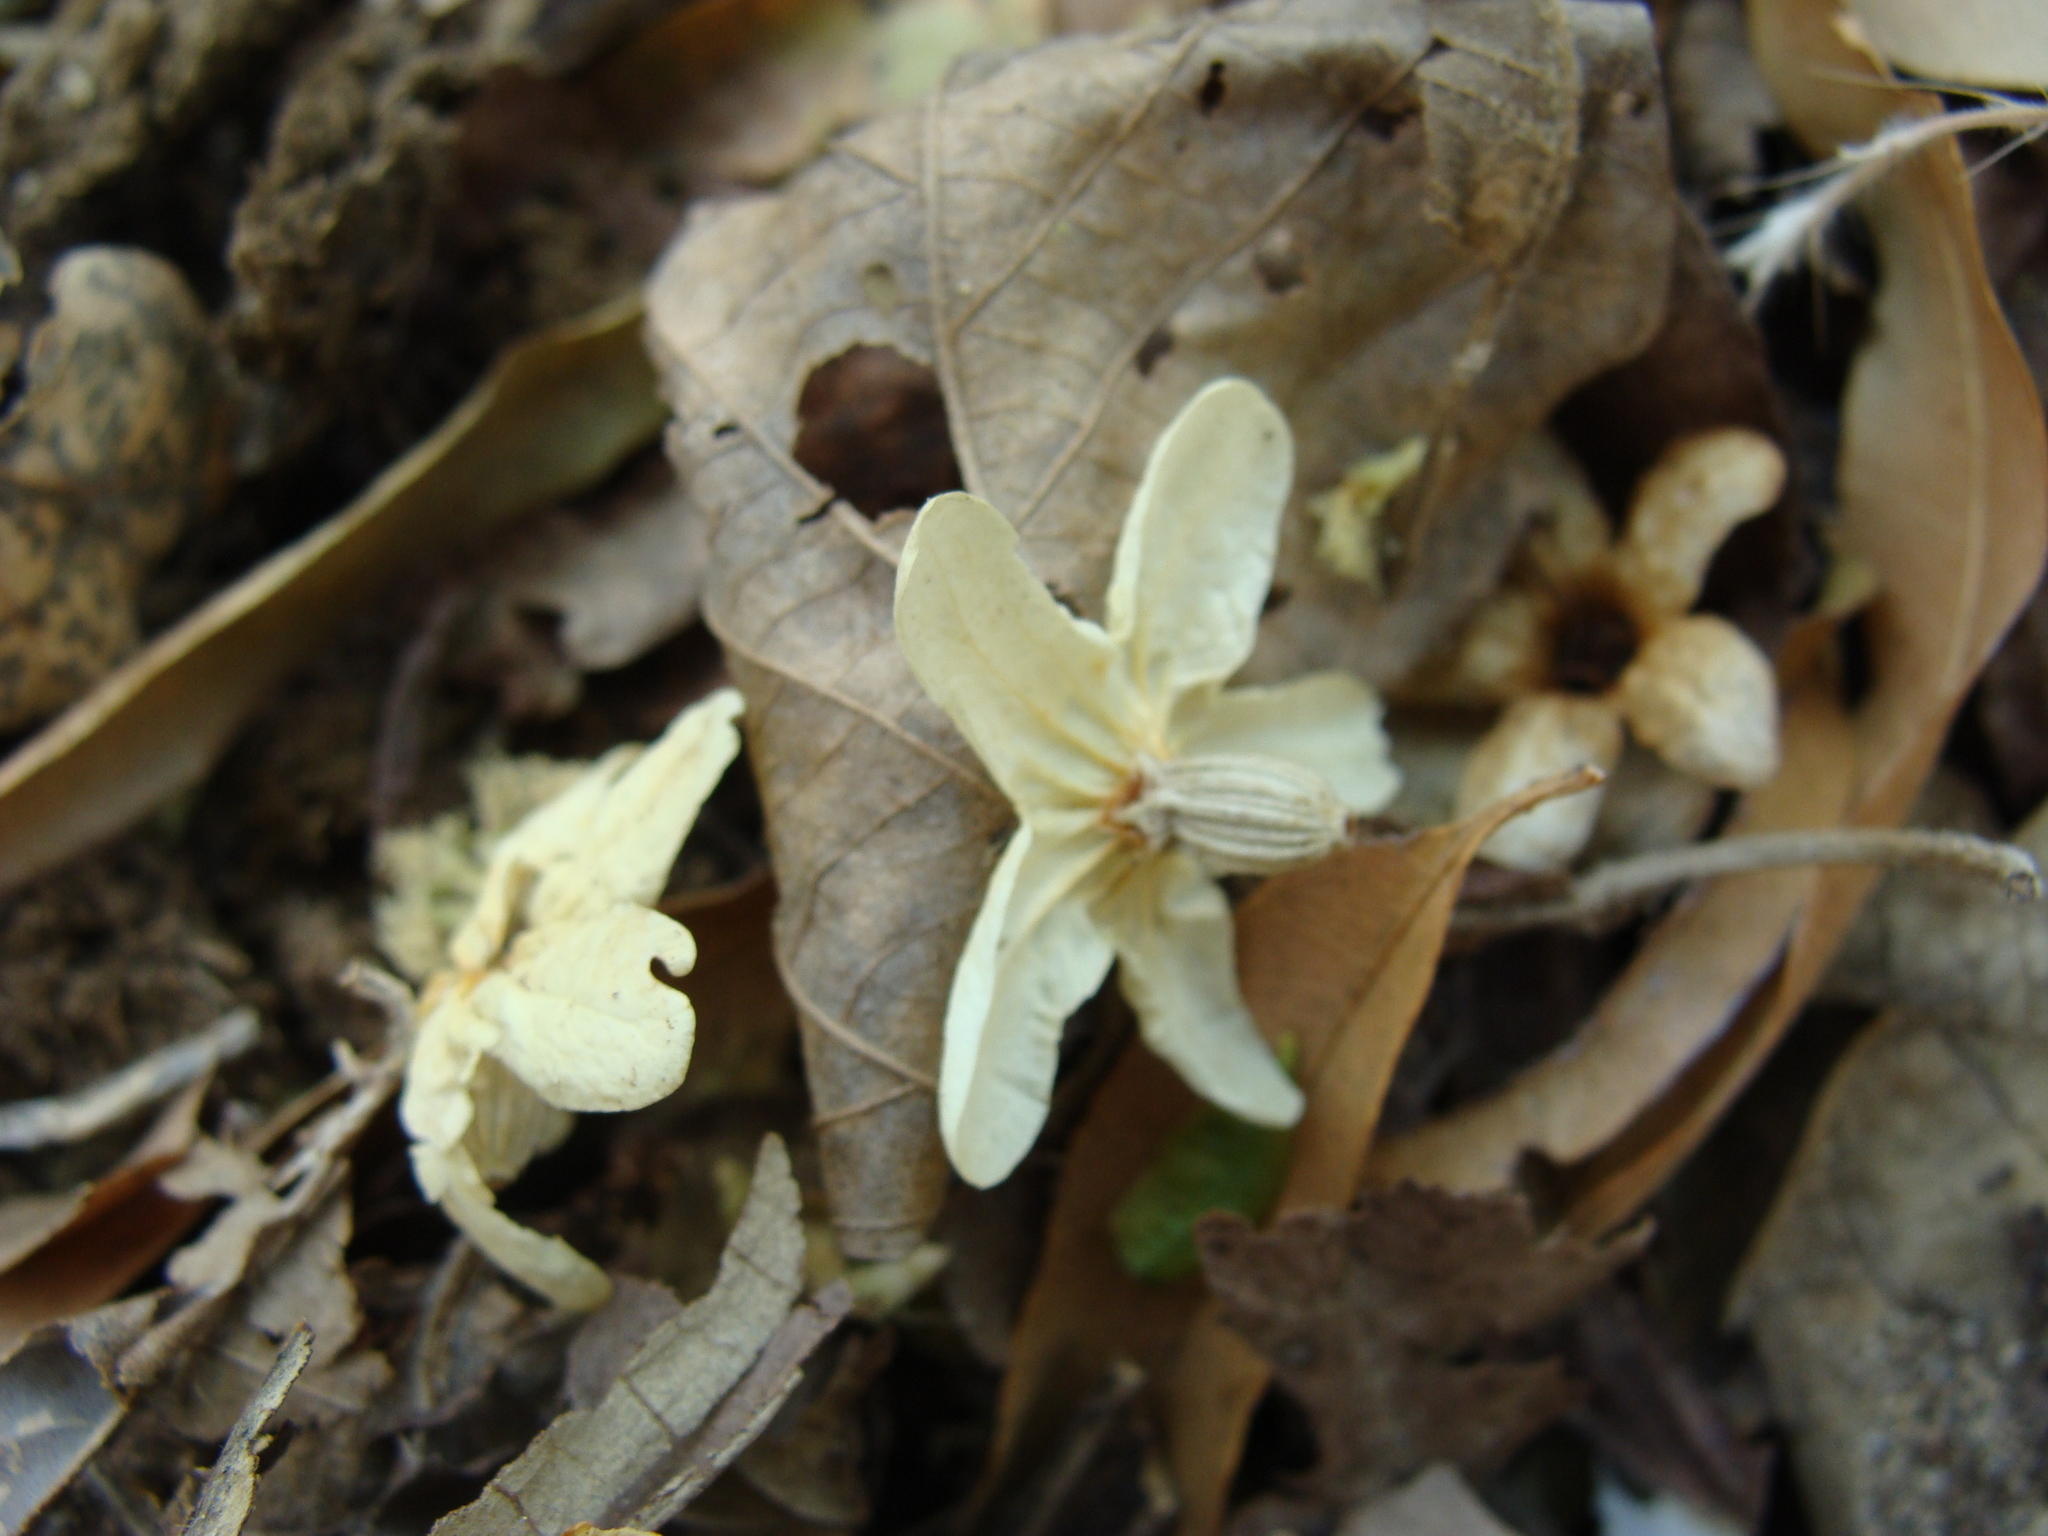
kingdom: Plantae
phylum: Tracheophyta
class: Magnoliopsida
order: Boraginales
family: Cordiaceae
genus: Cordia
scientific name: Cordia gerascanthus
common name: Baria
